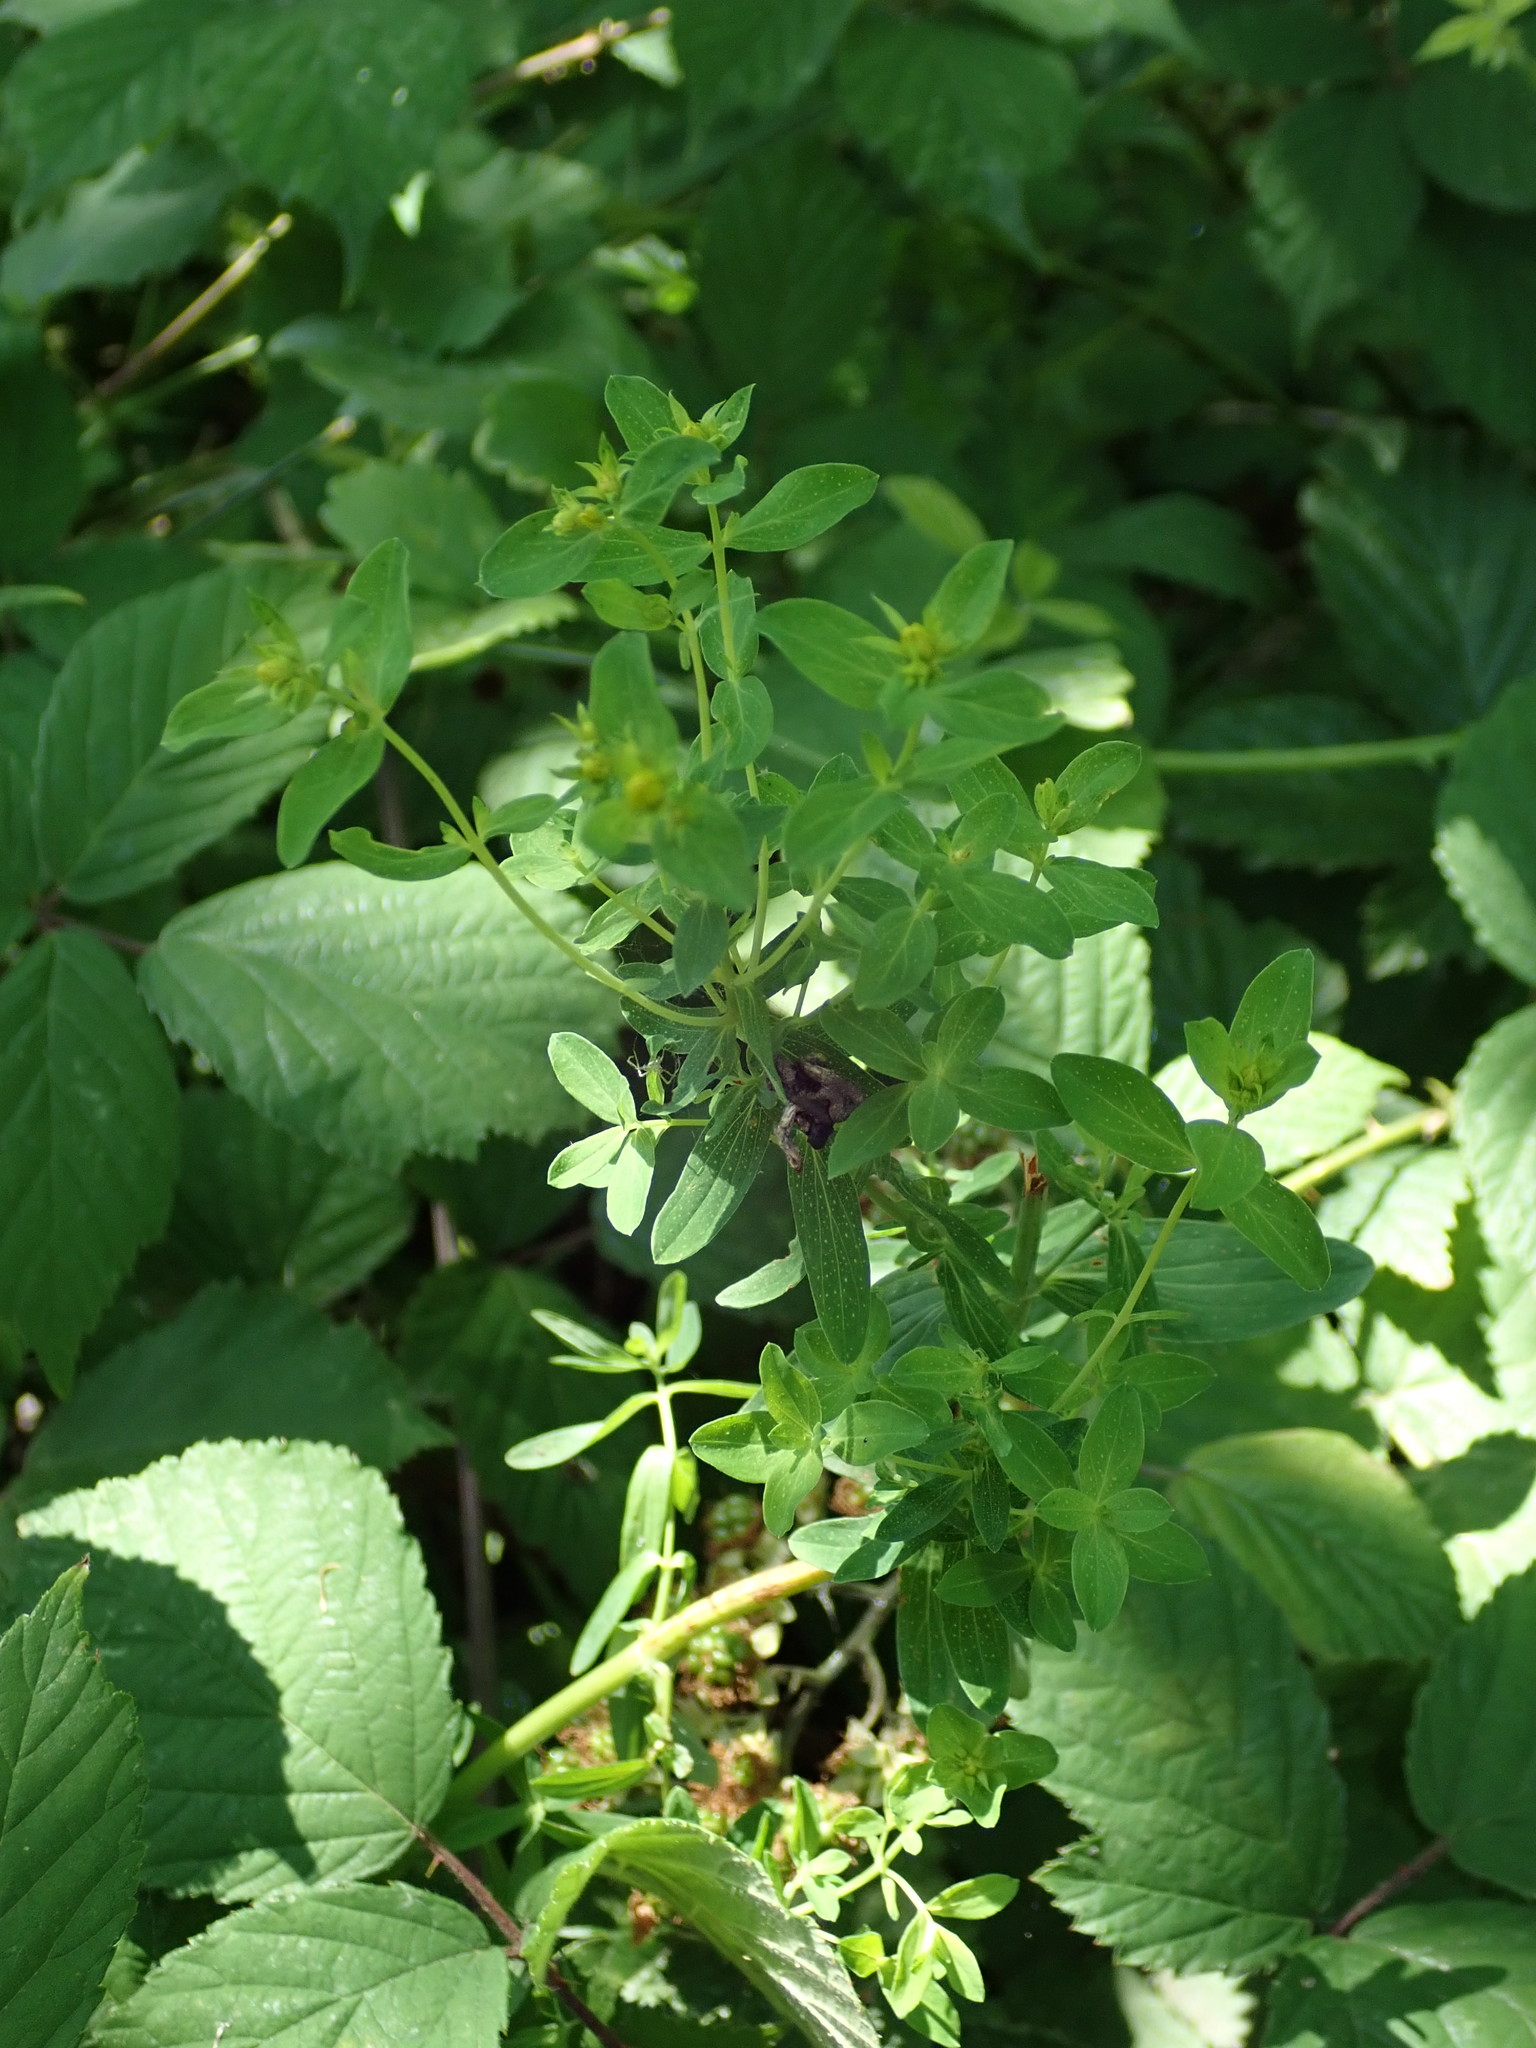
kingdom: Plantae
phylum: Tracheophyta
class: Magnoliopsida
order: Malpighiales
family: Hypericaceae
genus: Hypericum
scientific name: Hypericum perforatum
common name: Common st. johnswort
